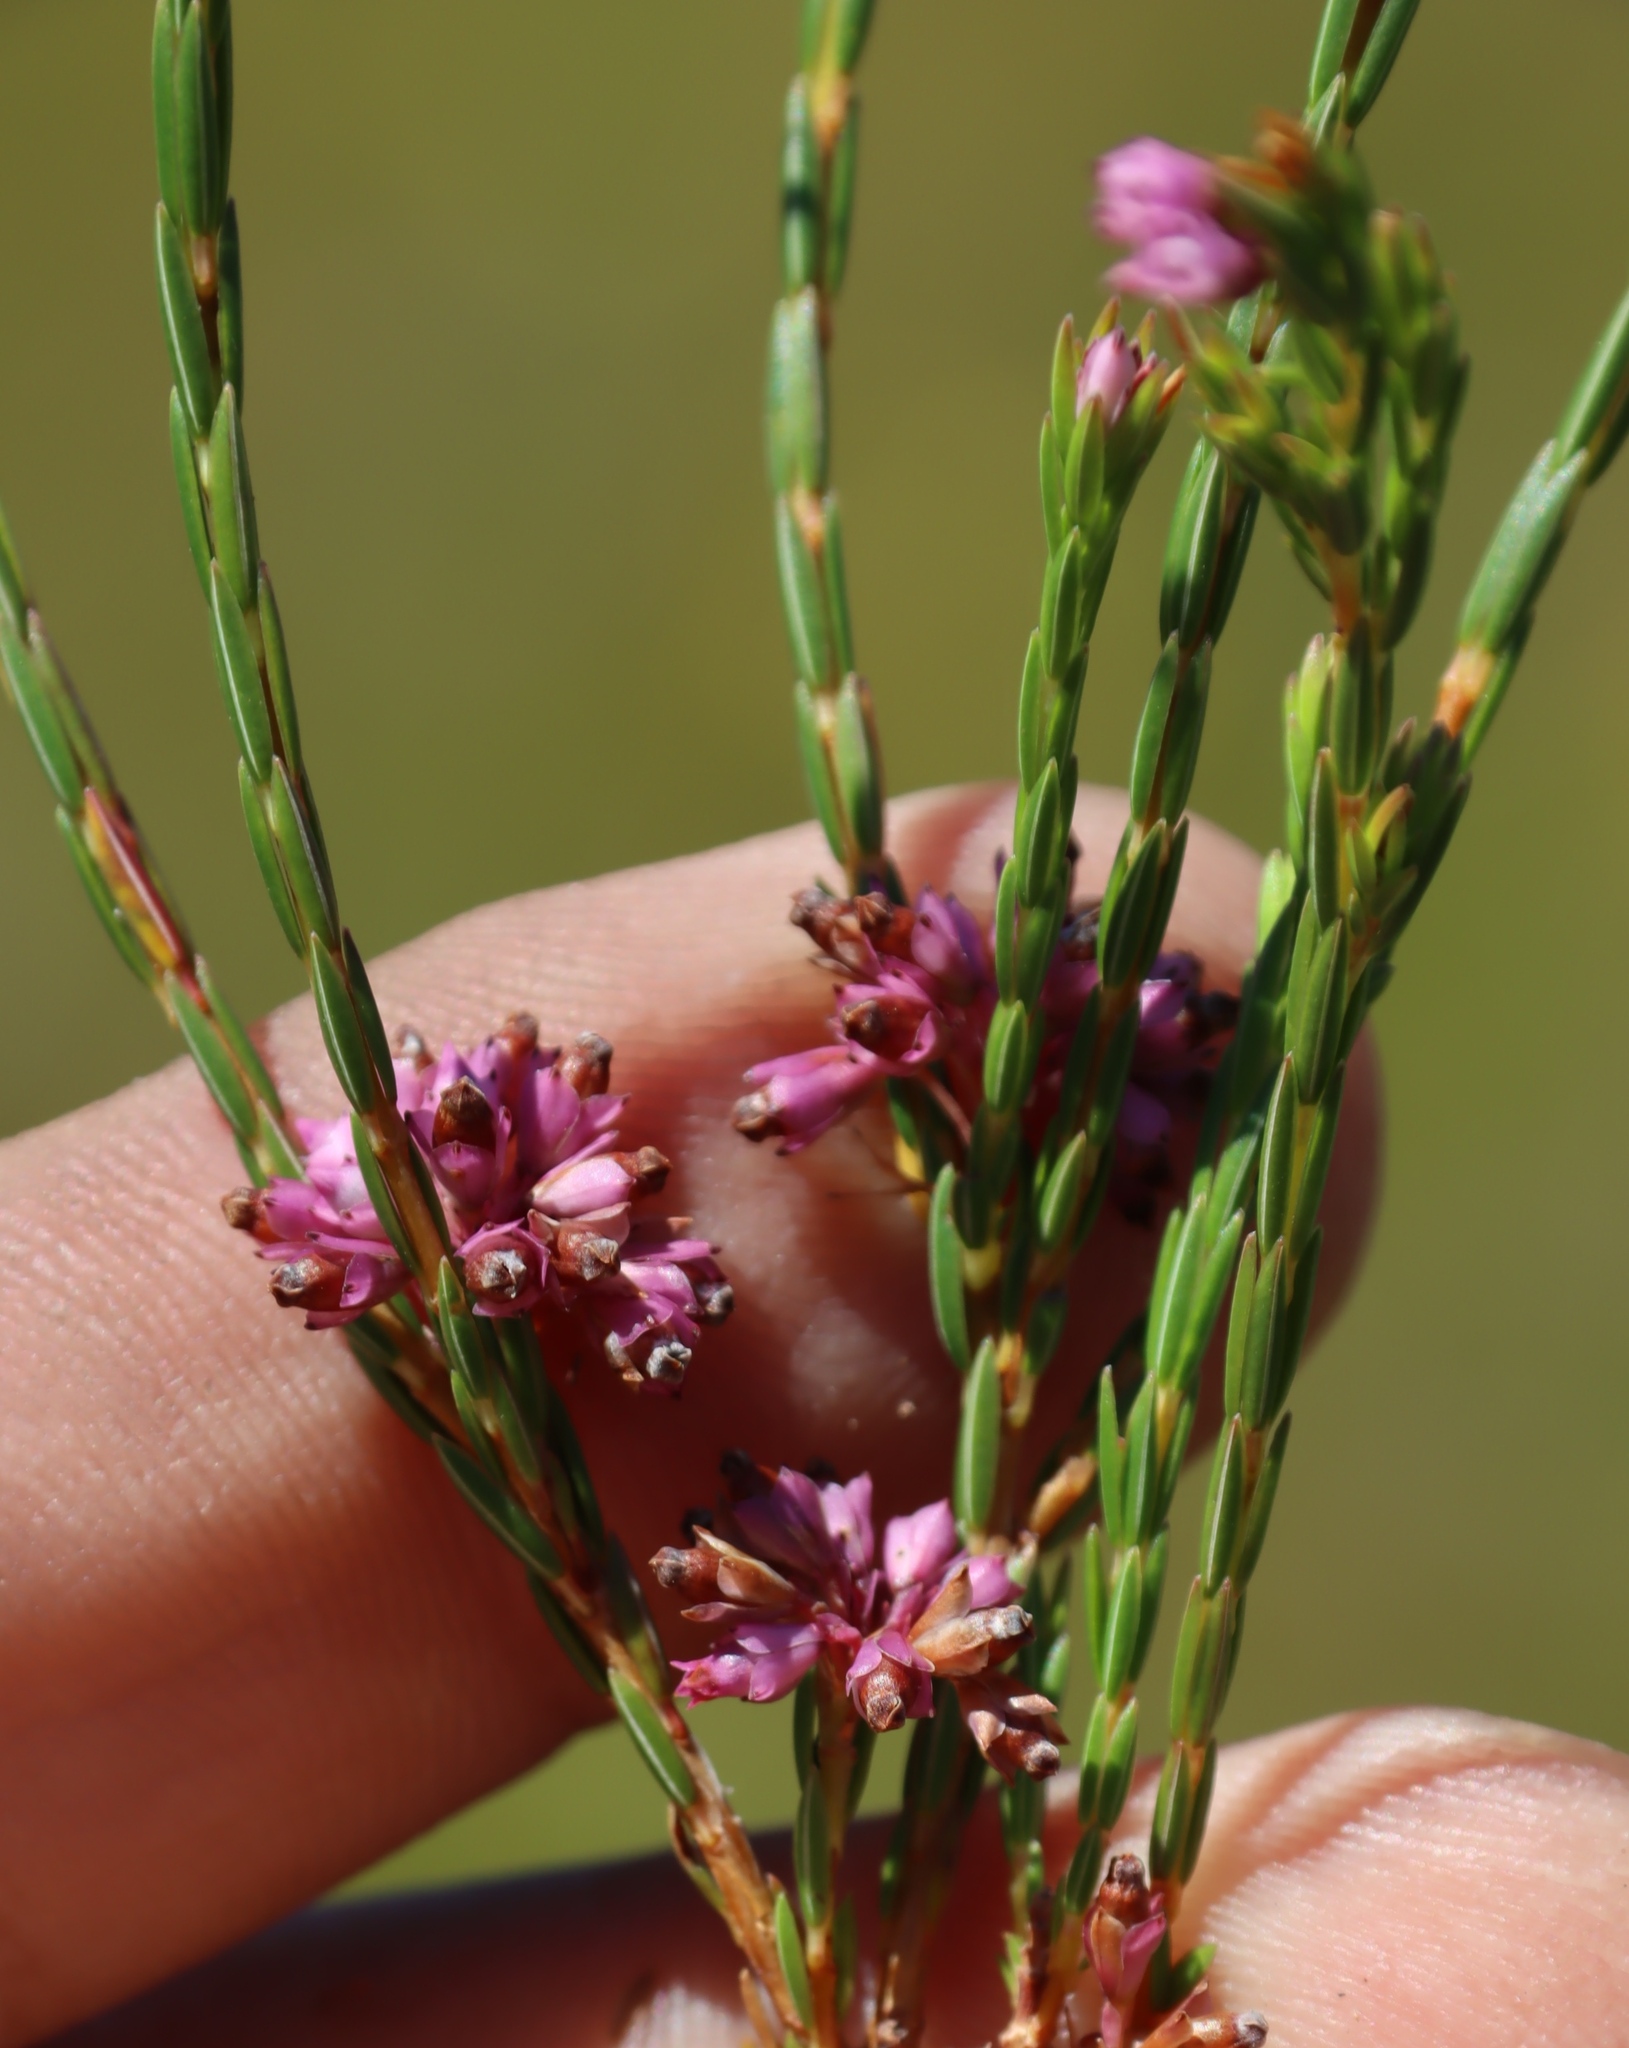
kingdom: Plantae
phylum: Tracheophyta
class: Magnoliopsida
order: Ericales
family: Ericaceae
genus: Erica
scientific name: Erica corifolia
